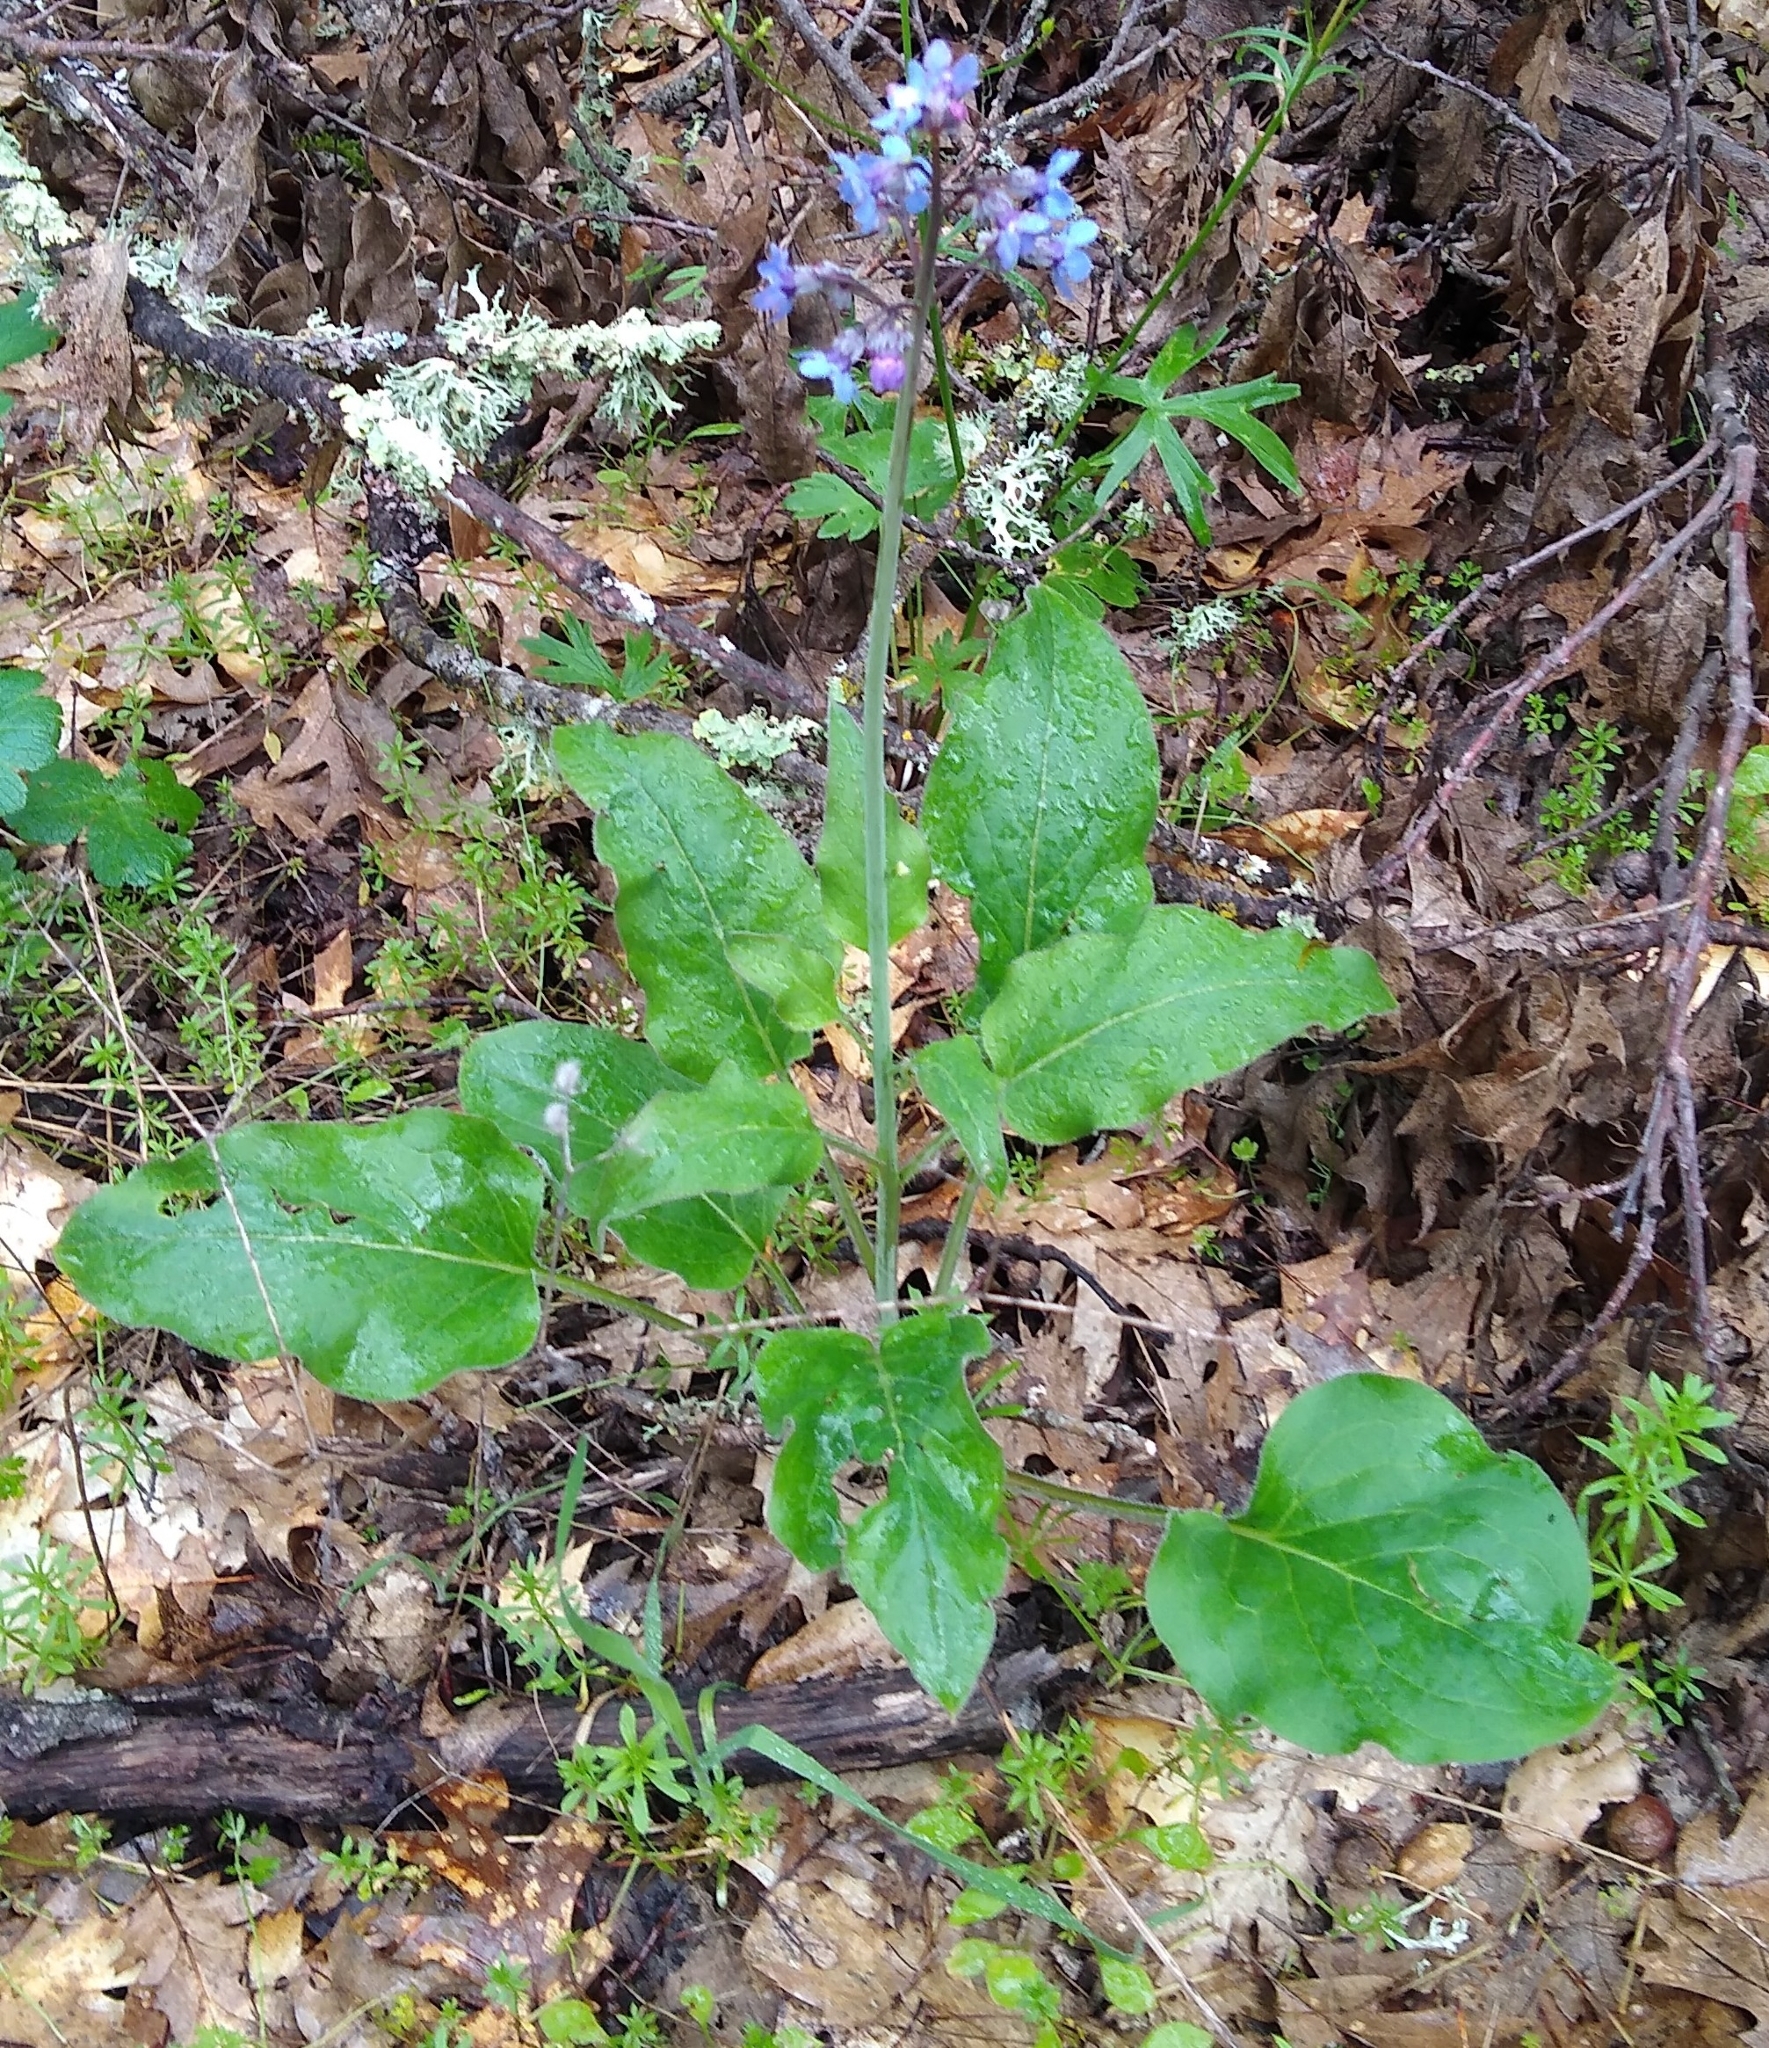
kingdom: Plantae
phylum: Tracheophyta
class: Magnoliopsida
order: Boraginales
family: Boraginaceae
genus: Adelinia
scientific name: Adelinia grande
